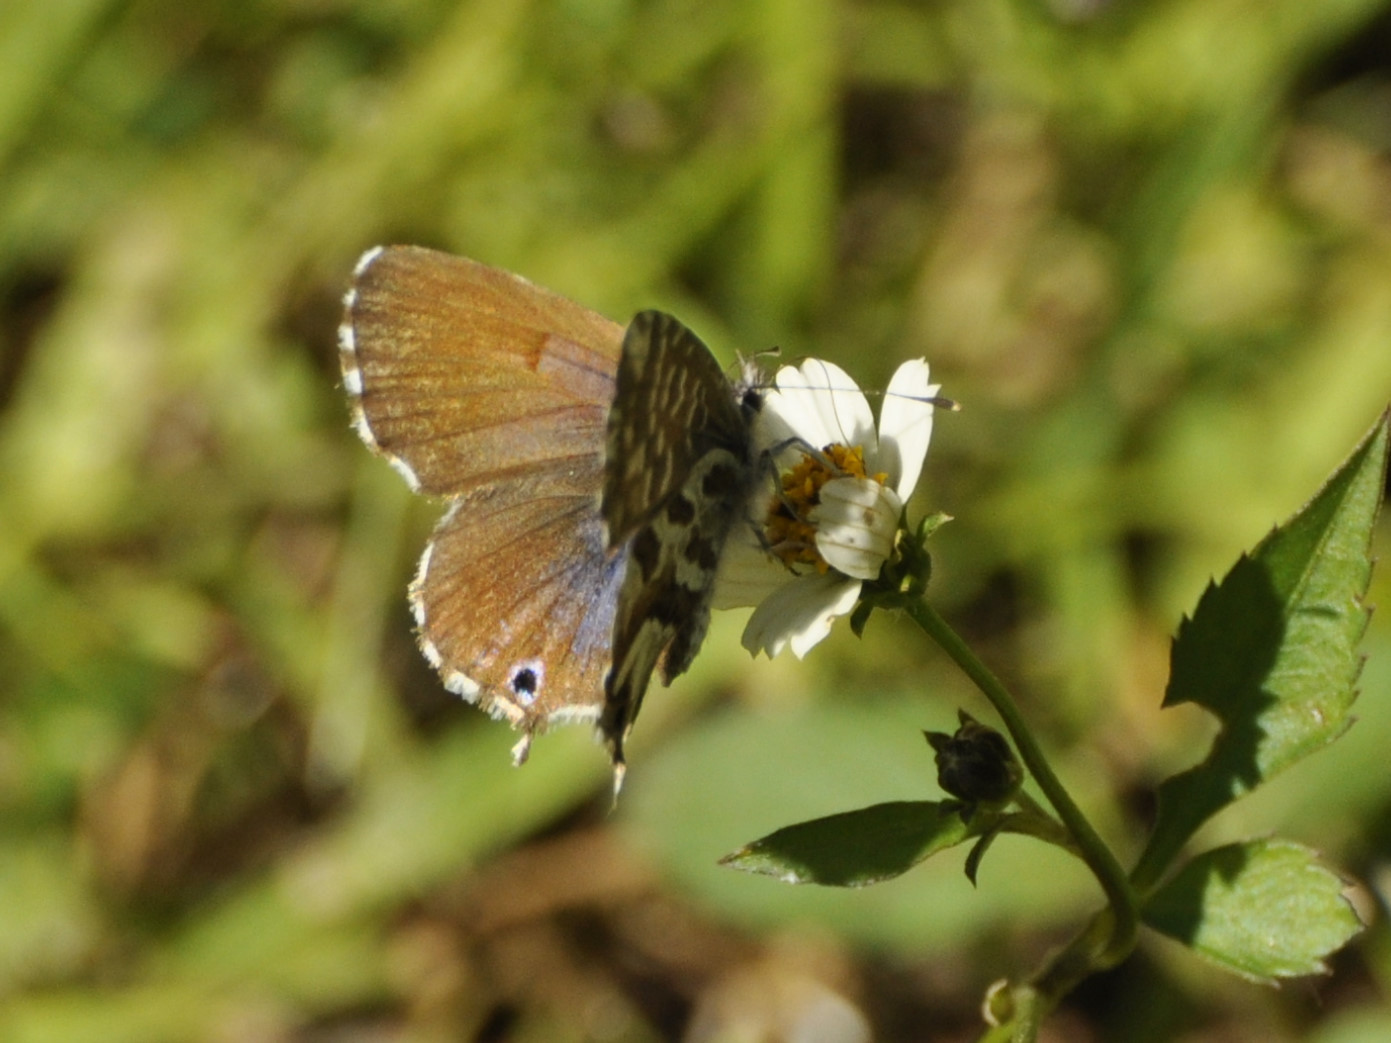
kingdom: Animalia
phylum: Arthropoda
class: Insecta
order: Lepidoptera
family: Lycaenidae
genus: Cacyreus
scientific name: Cacyreus fracta
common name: Water bronze
